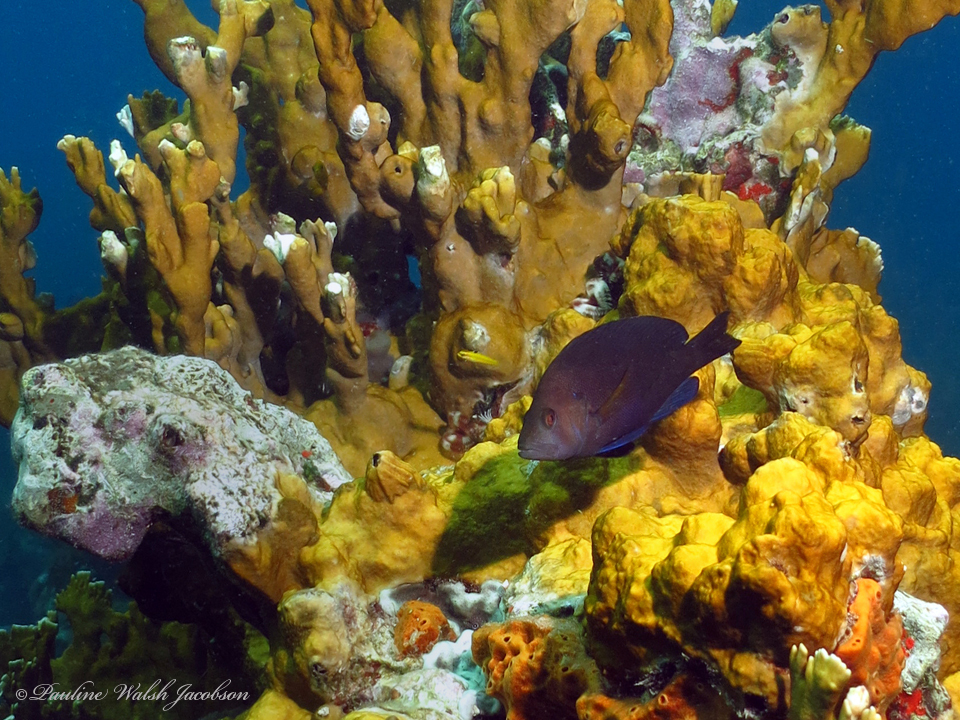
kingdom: Animalia
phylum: Chordata
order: Perciformes
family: Serranidae
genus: Hypoplectrus
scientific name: Hypoplectrus nigricans
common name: Black hamlet
